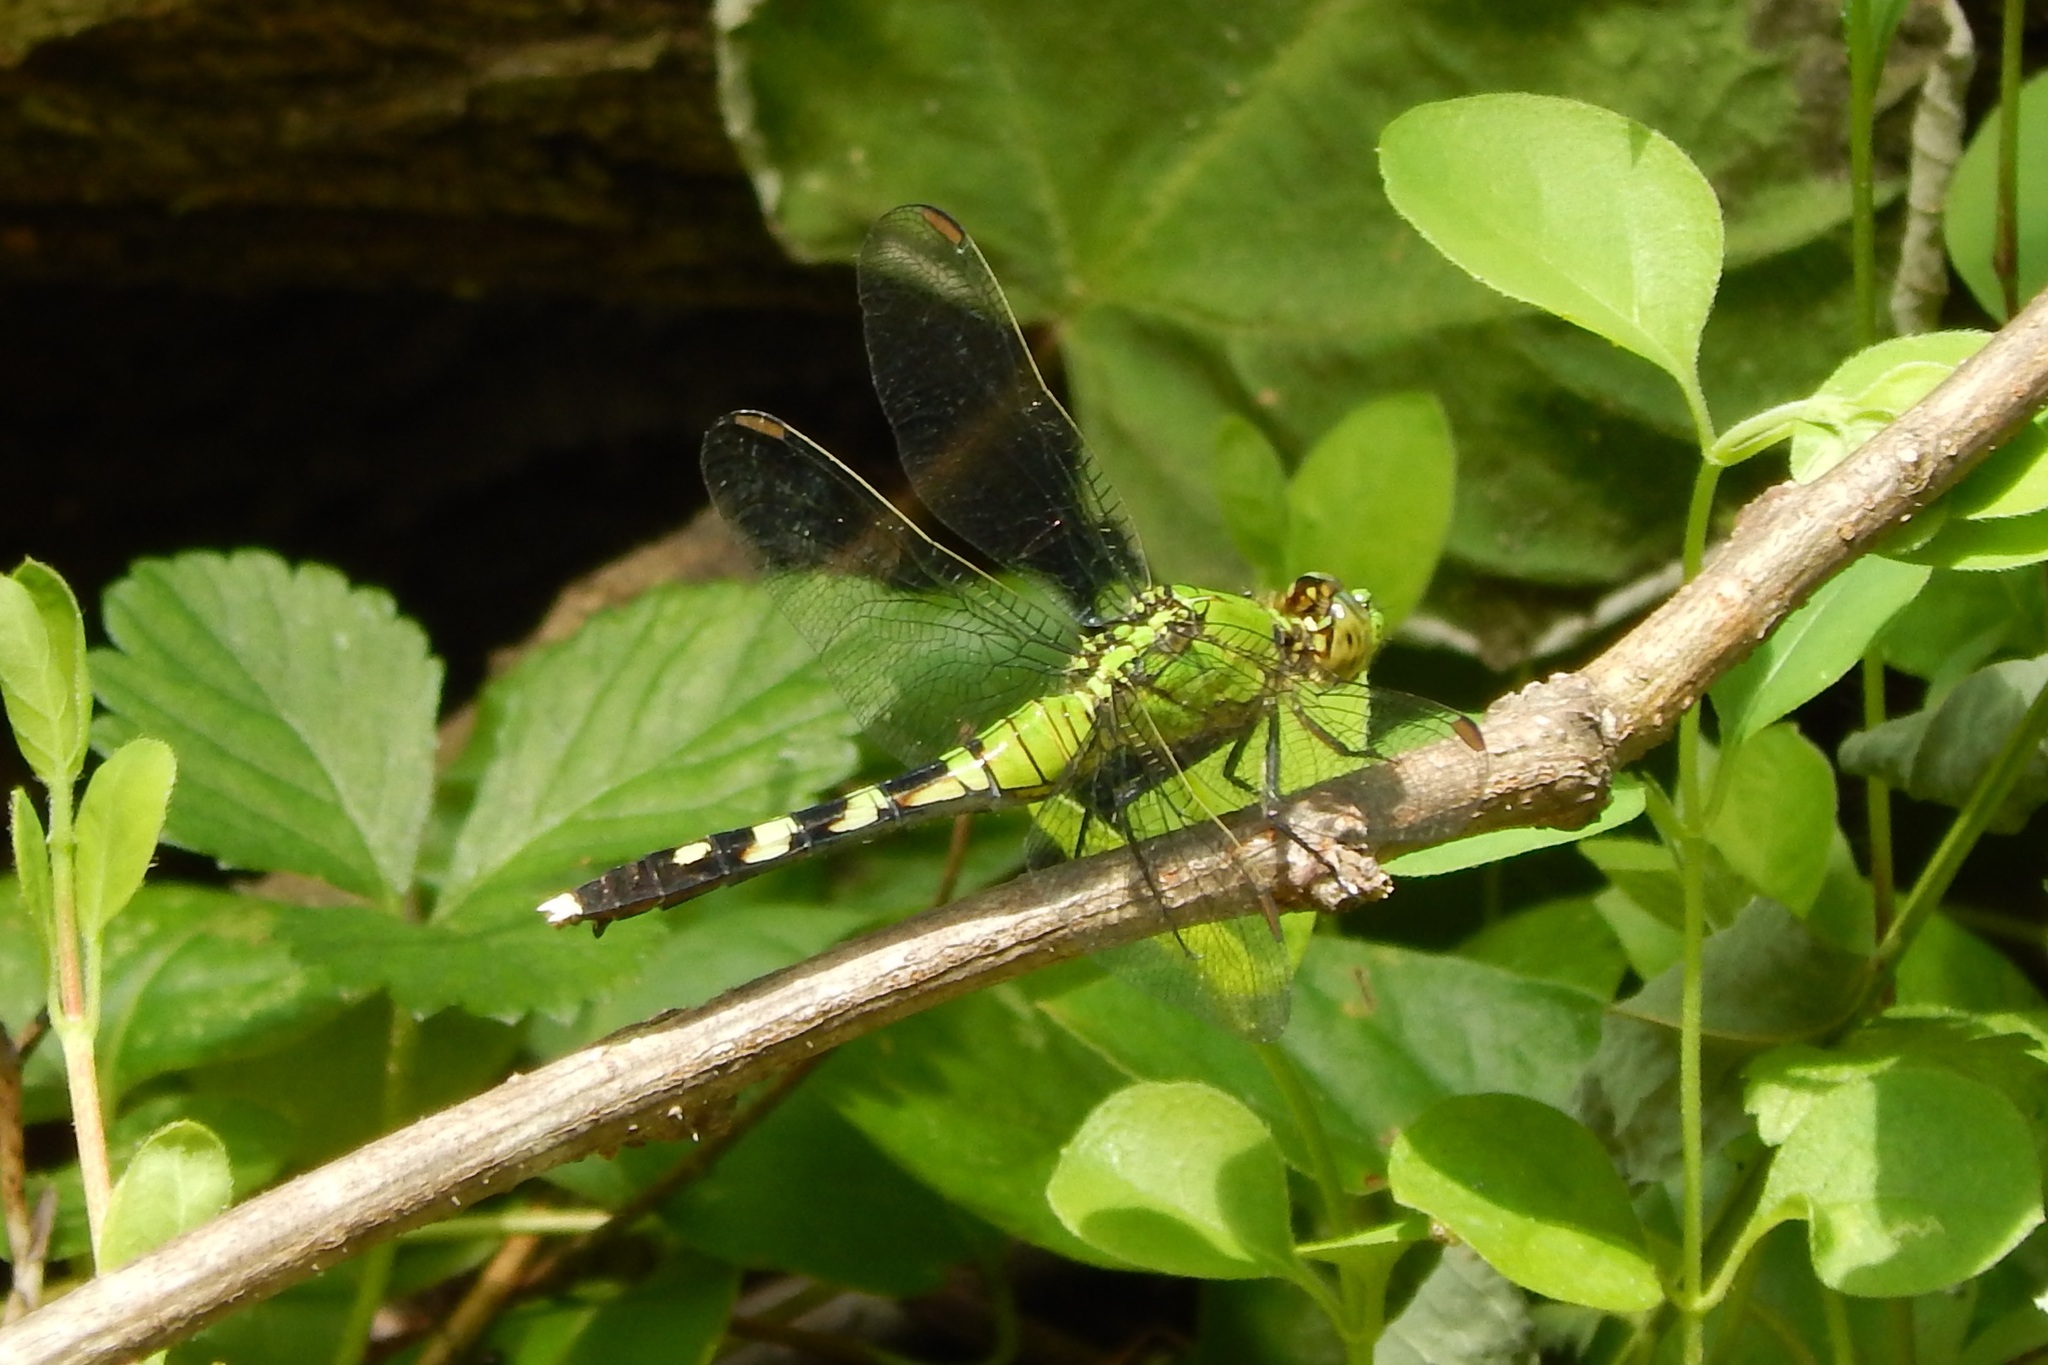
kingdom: Animalia
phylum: Arthropoda
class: Insecta
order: Odonata
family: Libellulidae
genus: Erythemis
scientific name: Erythemis simplicicollis
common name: Eastern pondhawk
